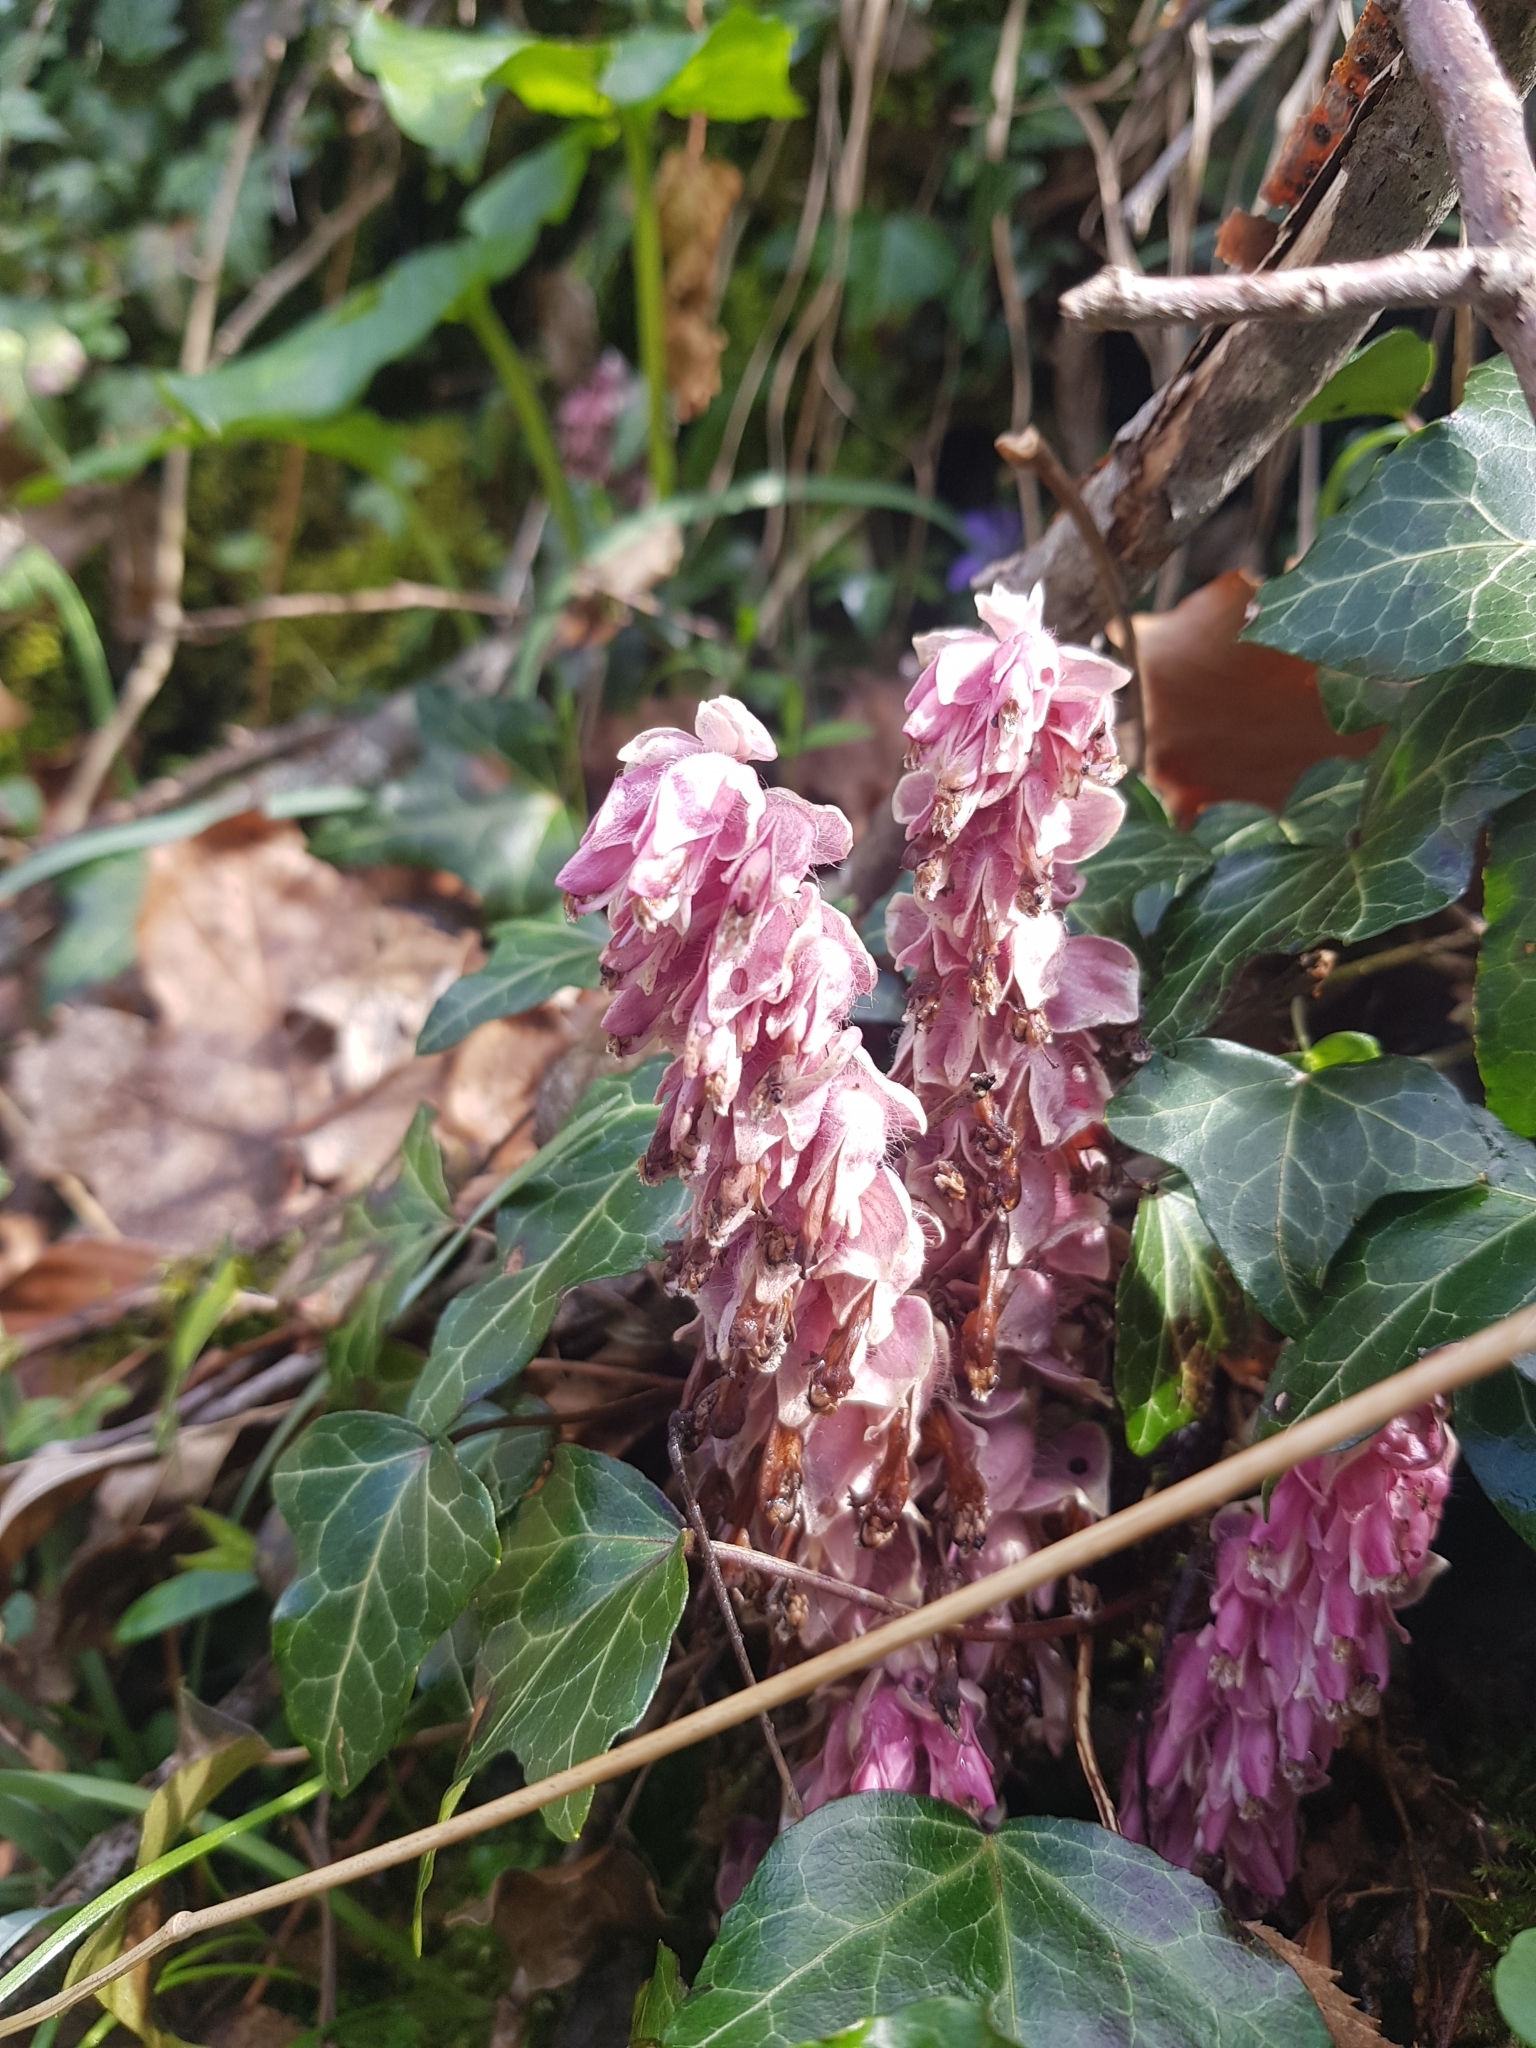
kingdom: Plantae
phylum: Tracheophyta
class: Magnoliopsida
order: Lamiales
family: Orobanchaceae
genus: Lathraea
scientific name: Lathraea squamaria
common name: Toothwort
